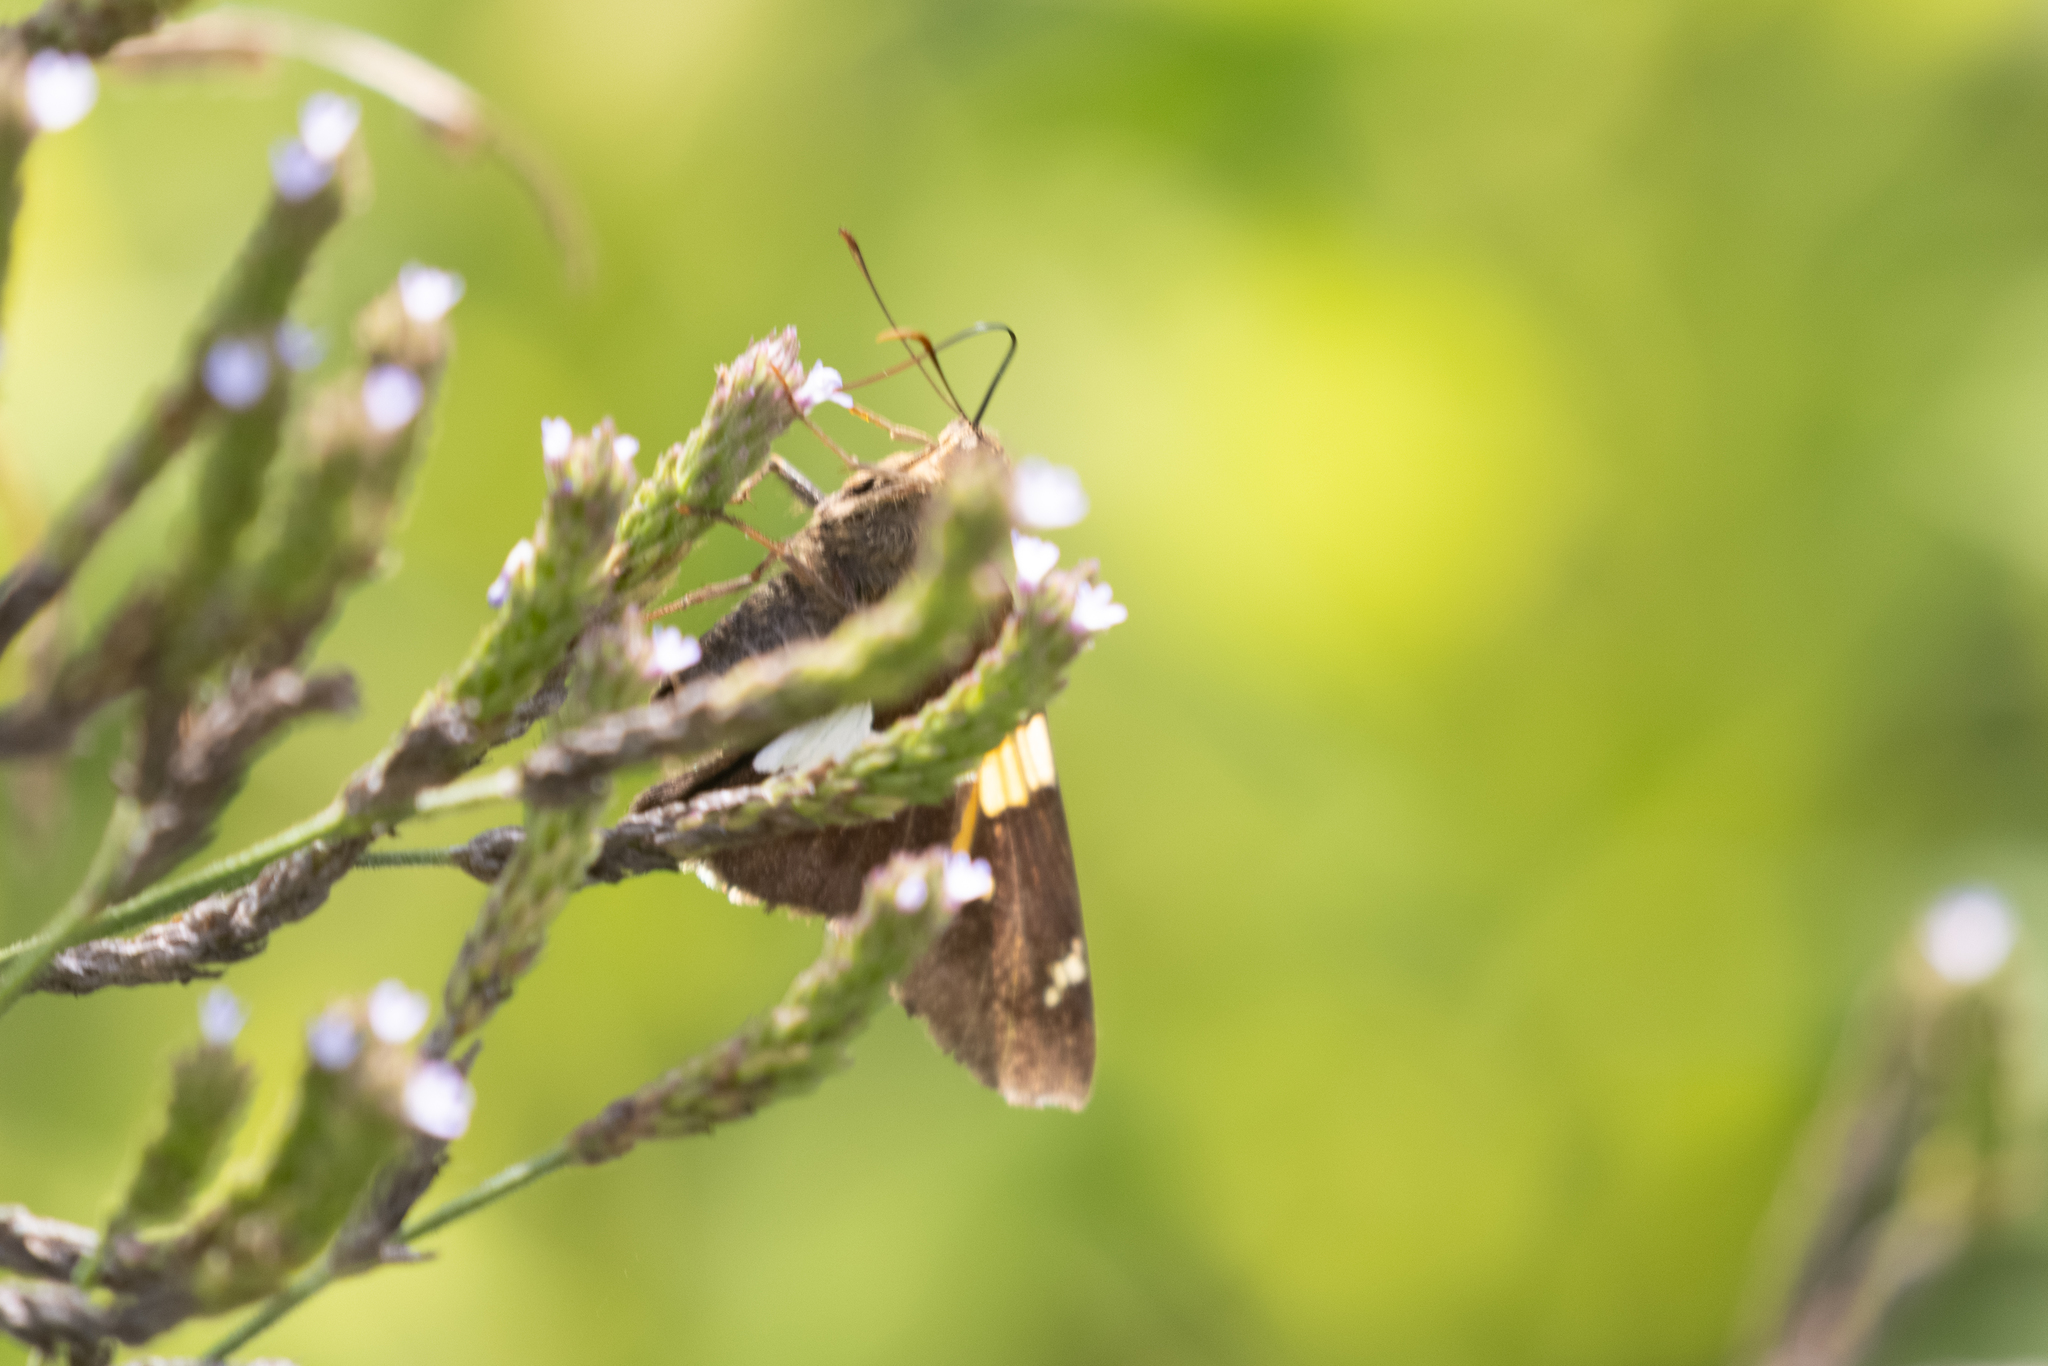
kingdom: Animalia
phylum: Arthropoda
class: Insecta
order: Lepidoptera
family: Hesperiidae
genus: Epargyreus
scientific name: Epargyreus clarus
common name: Silver-spotted skipper
